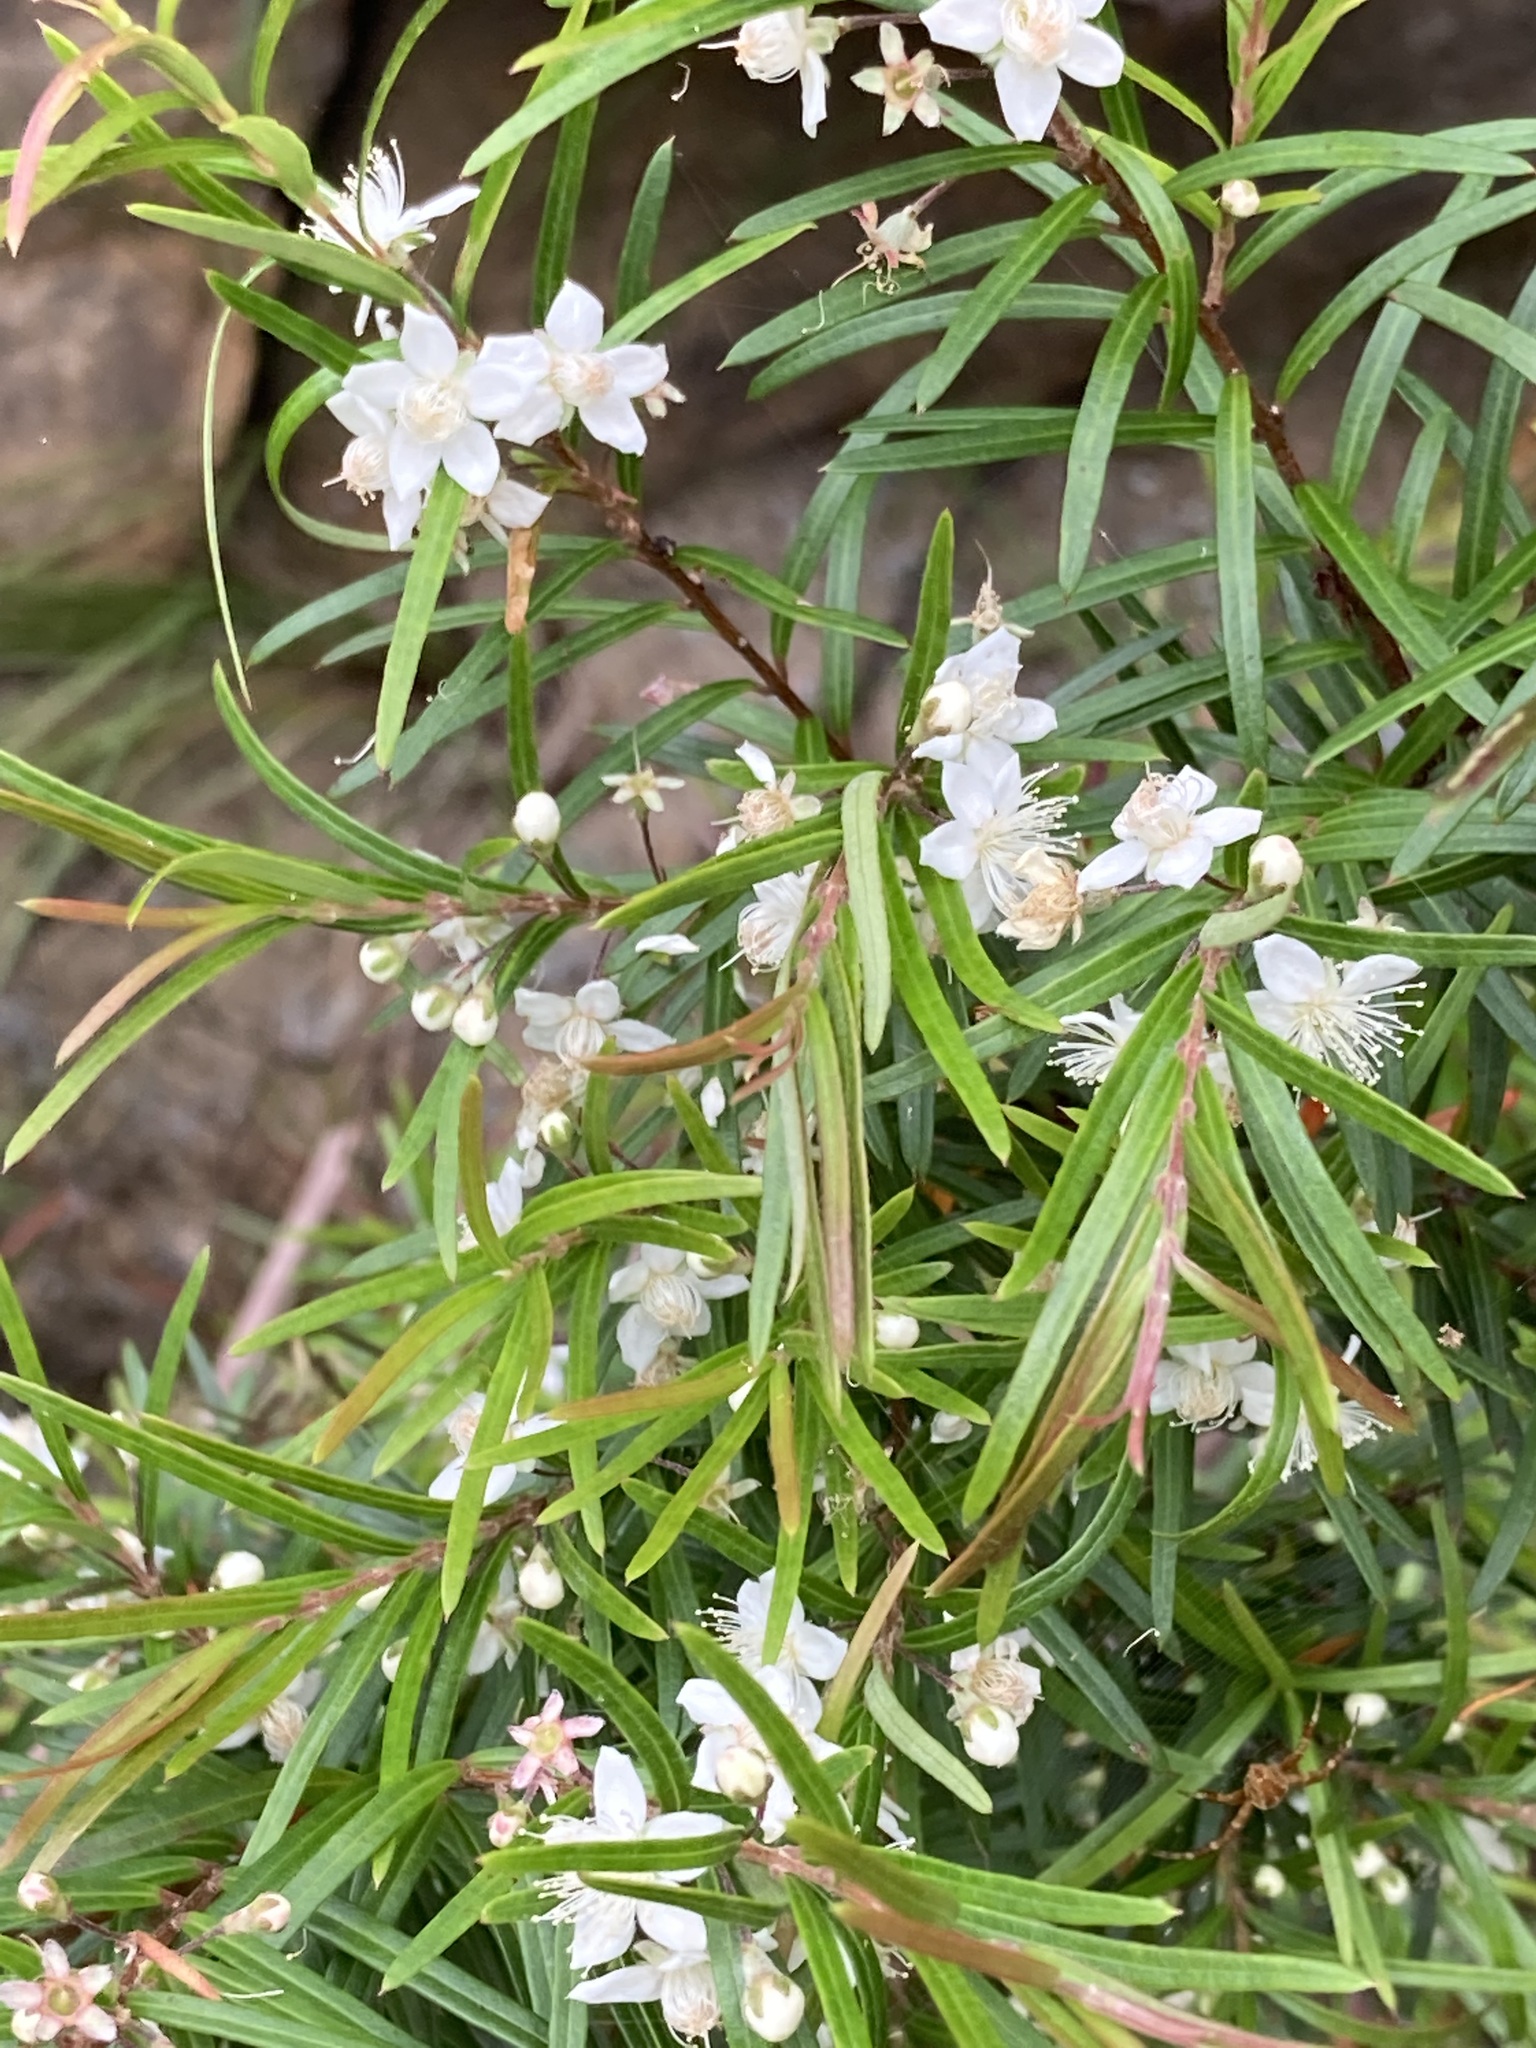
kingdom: Plantae
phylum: Tracheophyta
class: Magnoliopsida
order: Myrtales
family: Myrtaceae
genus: Austromyrtus
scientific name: Austromyrtus tenuifolia
